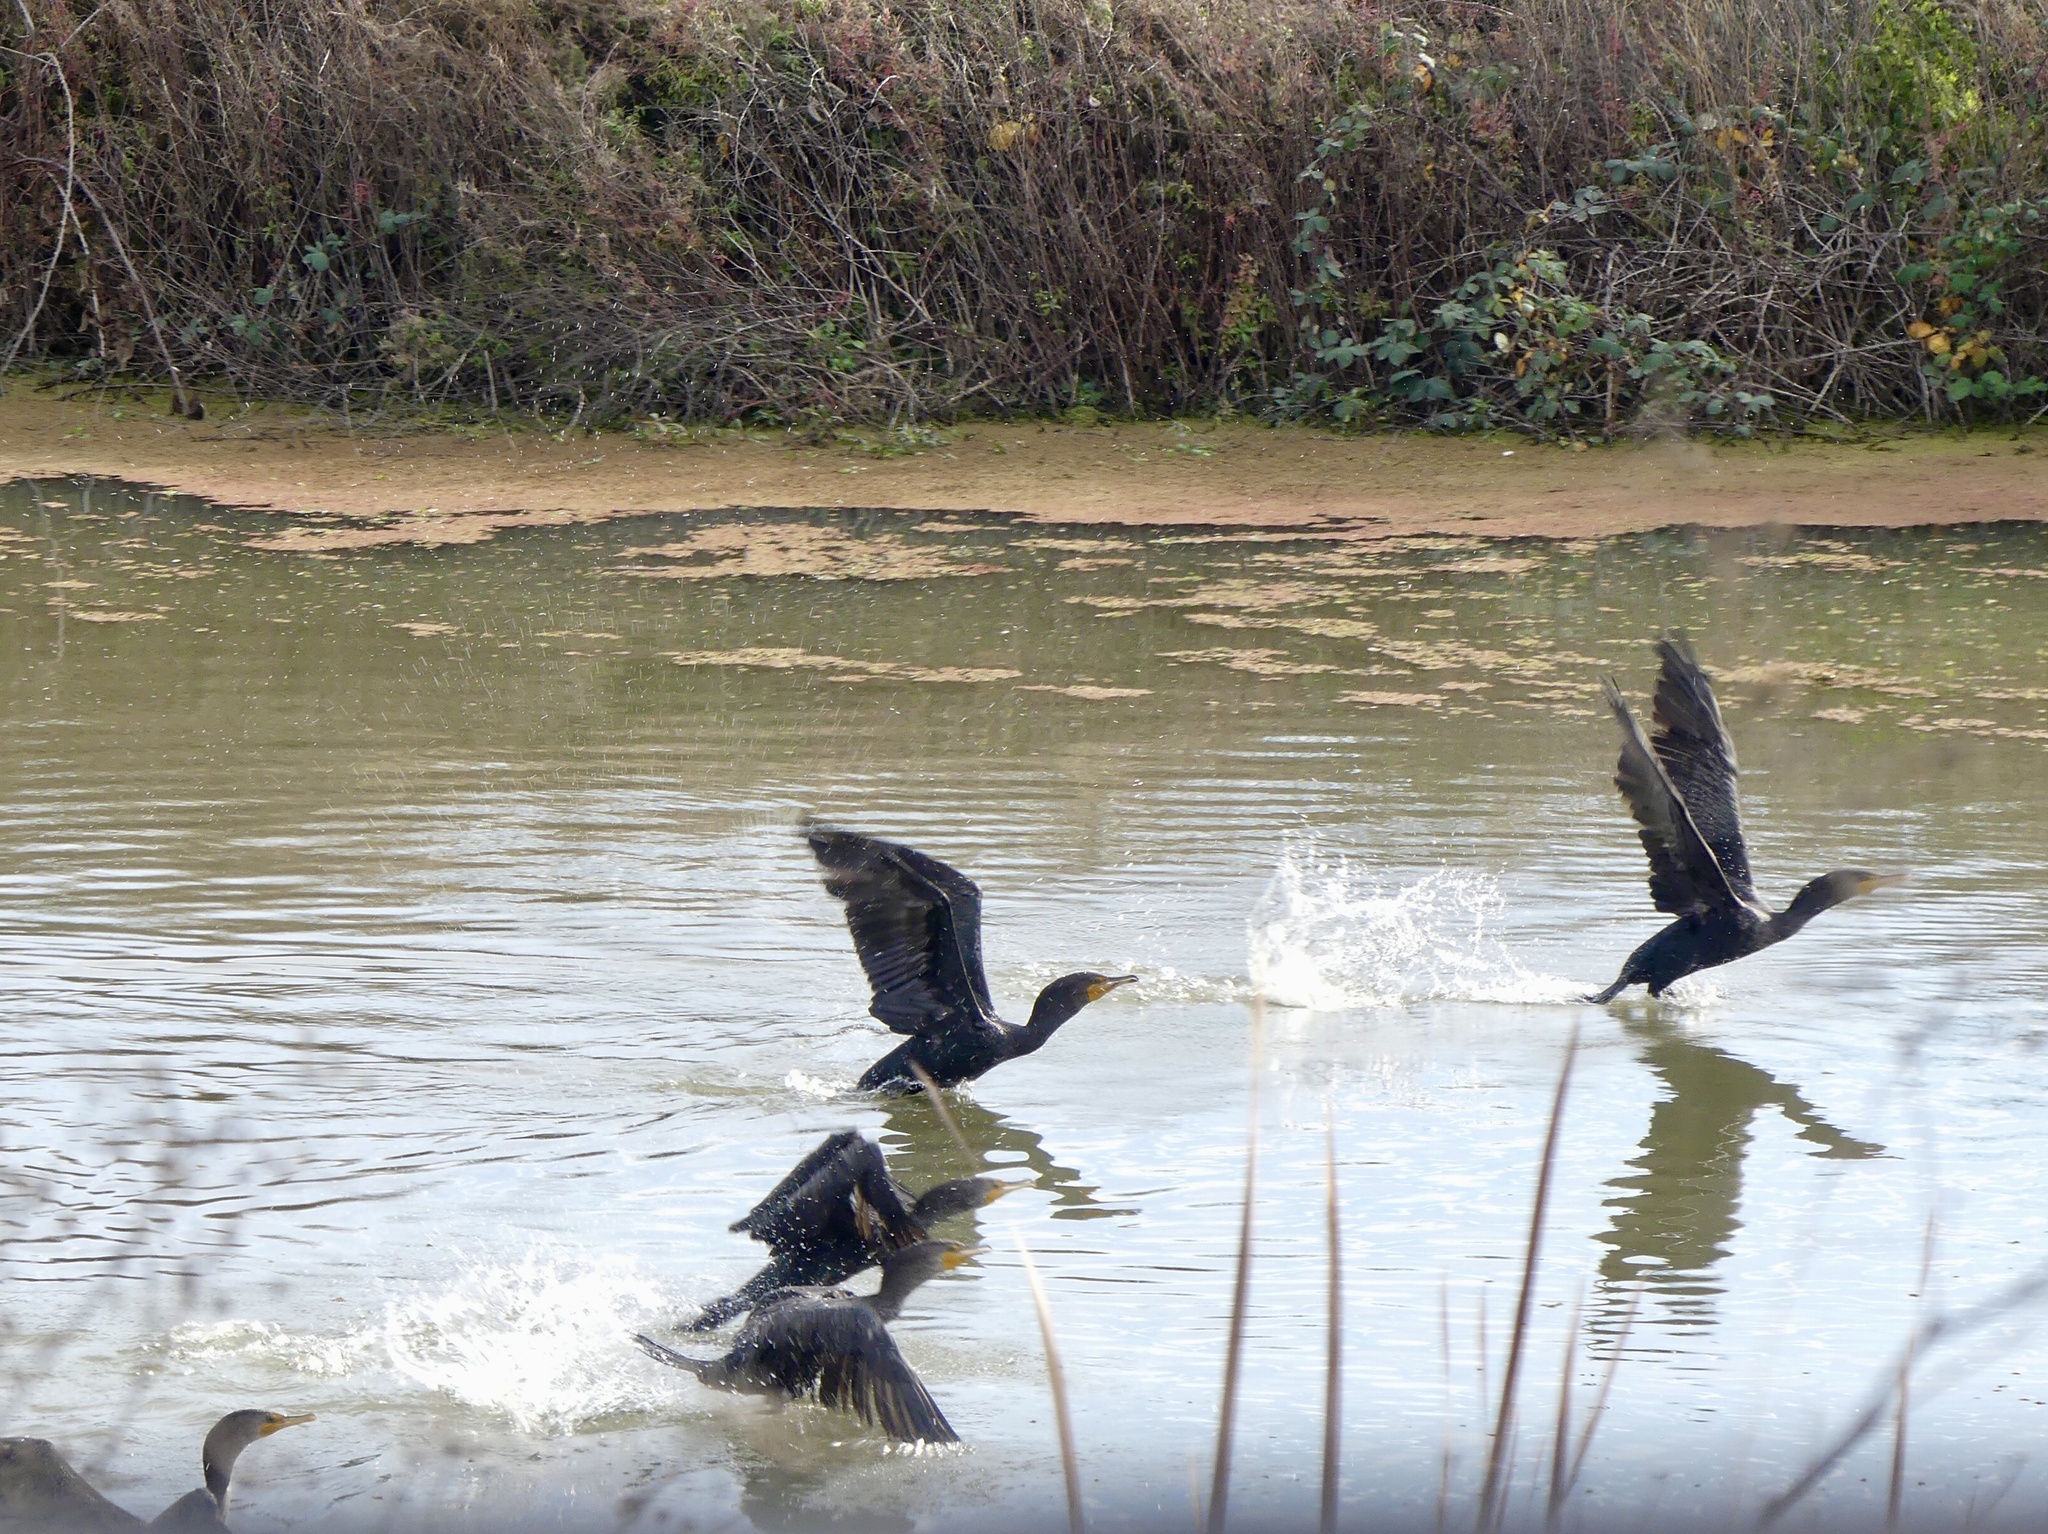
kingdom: Animalia
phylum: Chordata
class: Aves
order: Suliformes
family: Phalacrocoracidae
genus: Phalacrocorax
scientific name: Phalacrocorax auritus
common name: Double-crested cormorant
